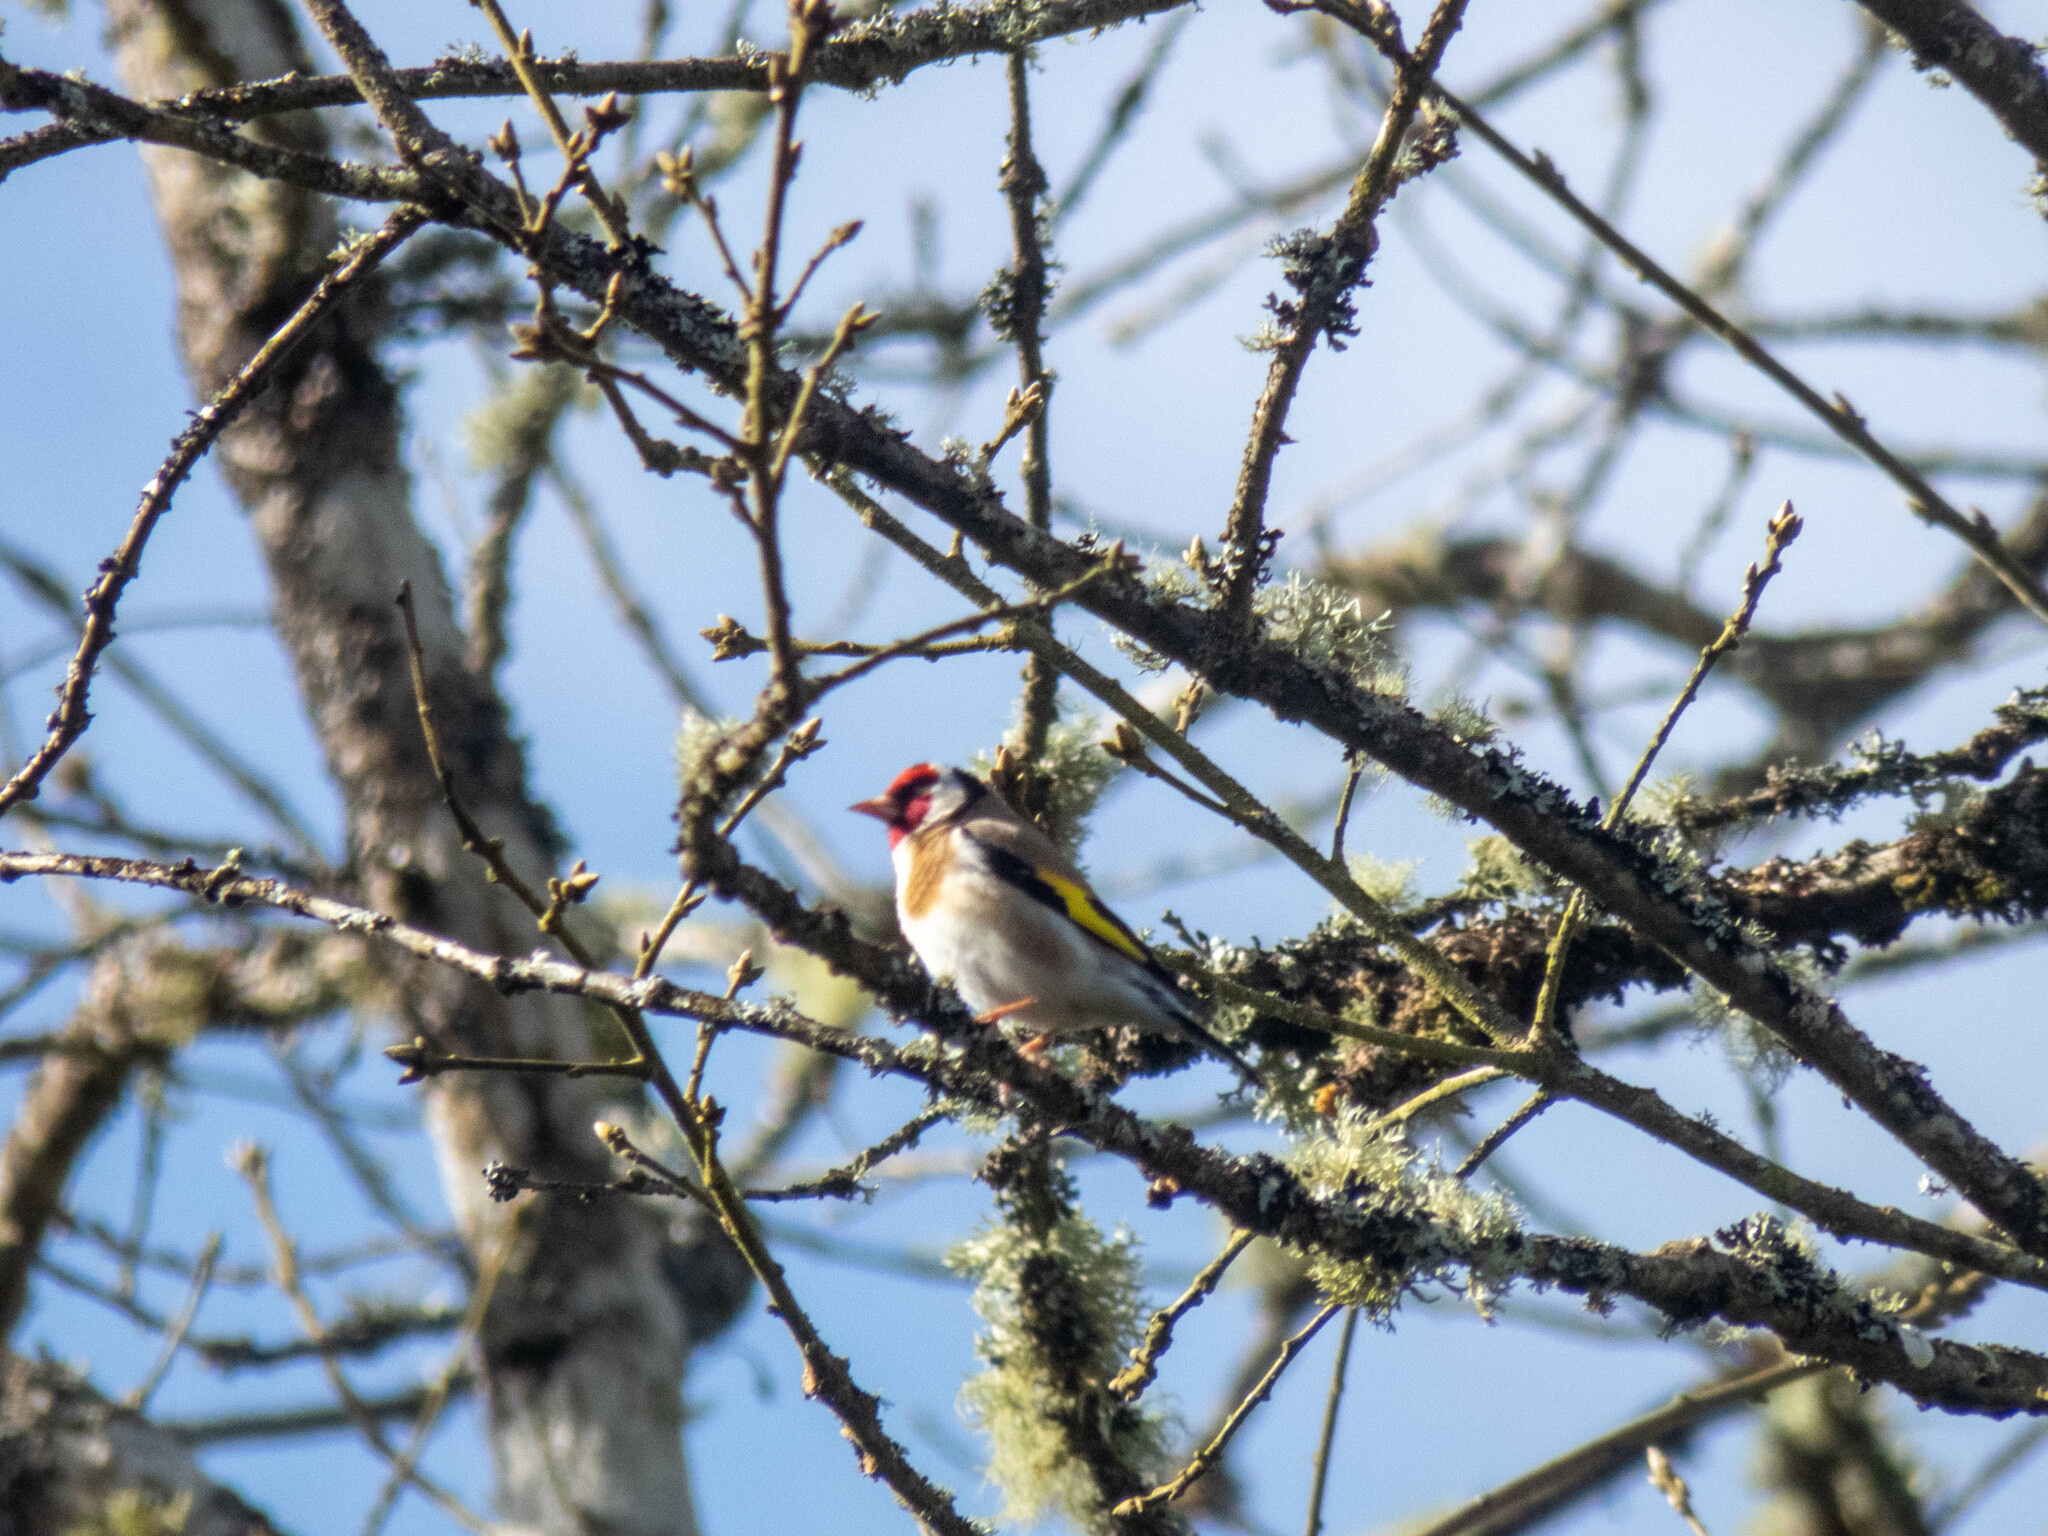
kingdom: Animalia
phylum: Chordata
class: Aves
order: Passeriformes
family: Fringillidae
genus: Carduelis
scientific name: Carduelis carduelis
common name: European goldfinch
